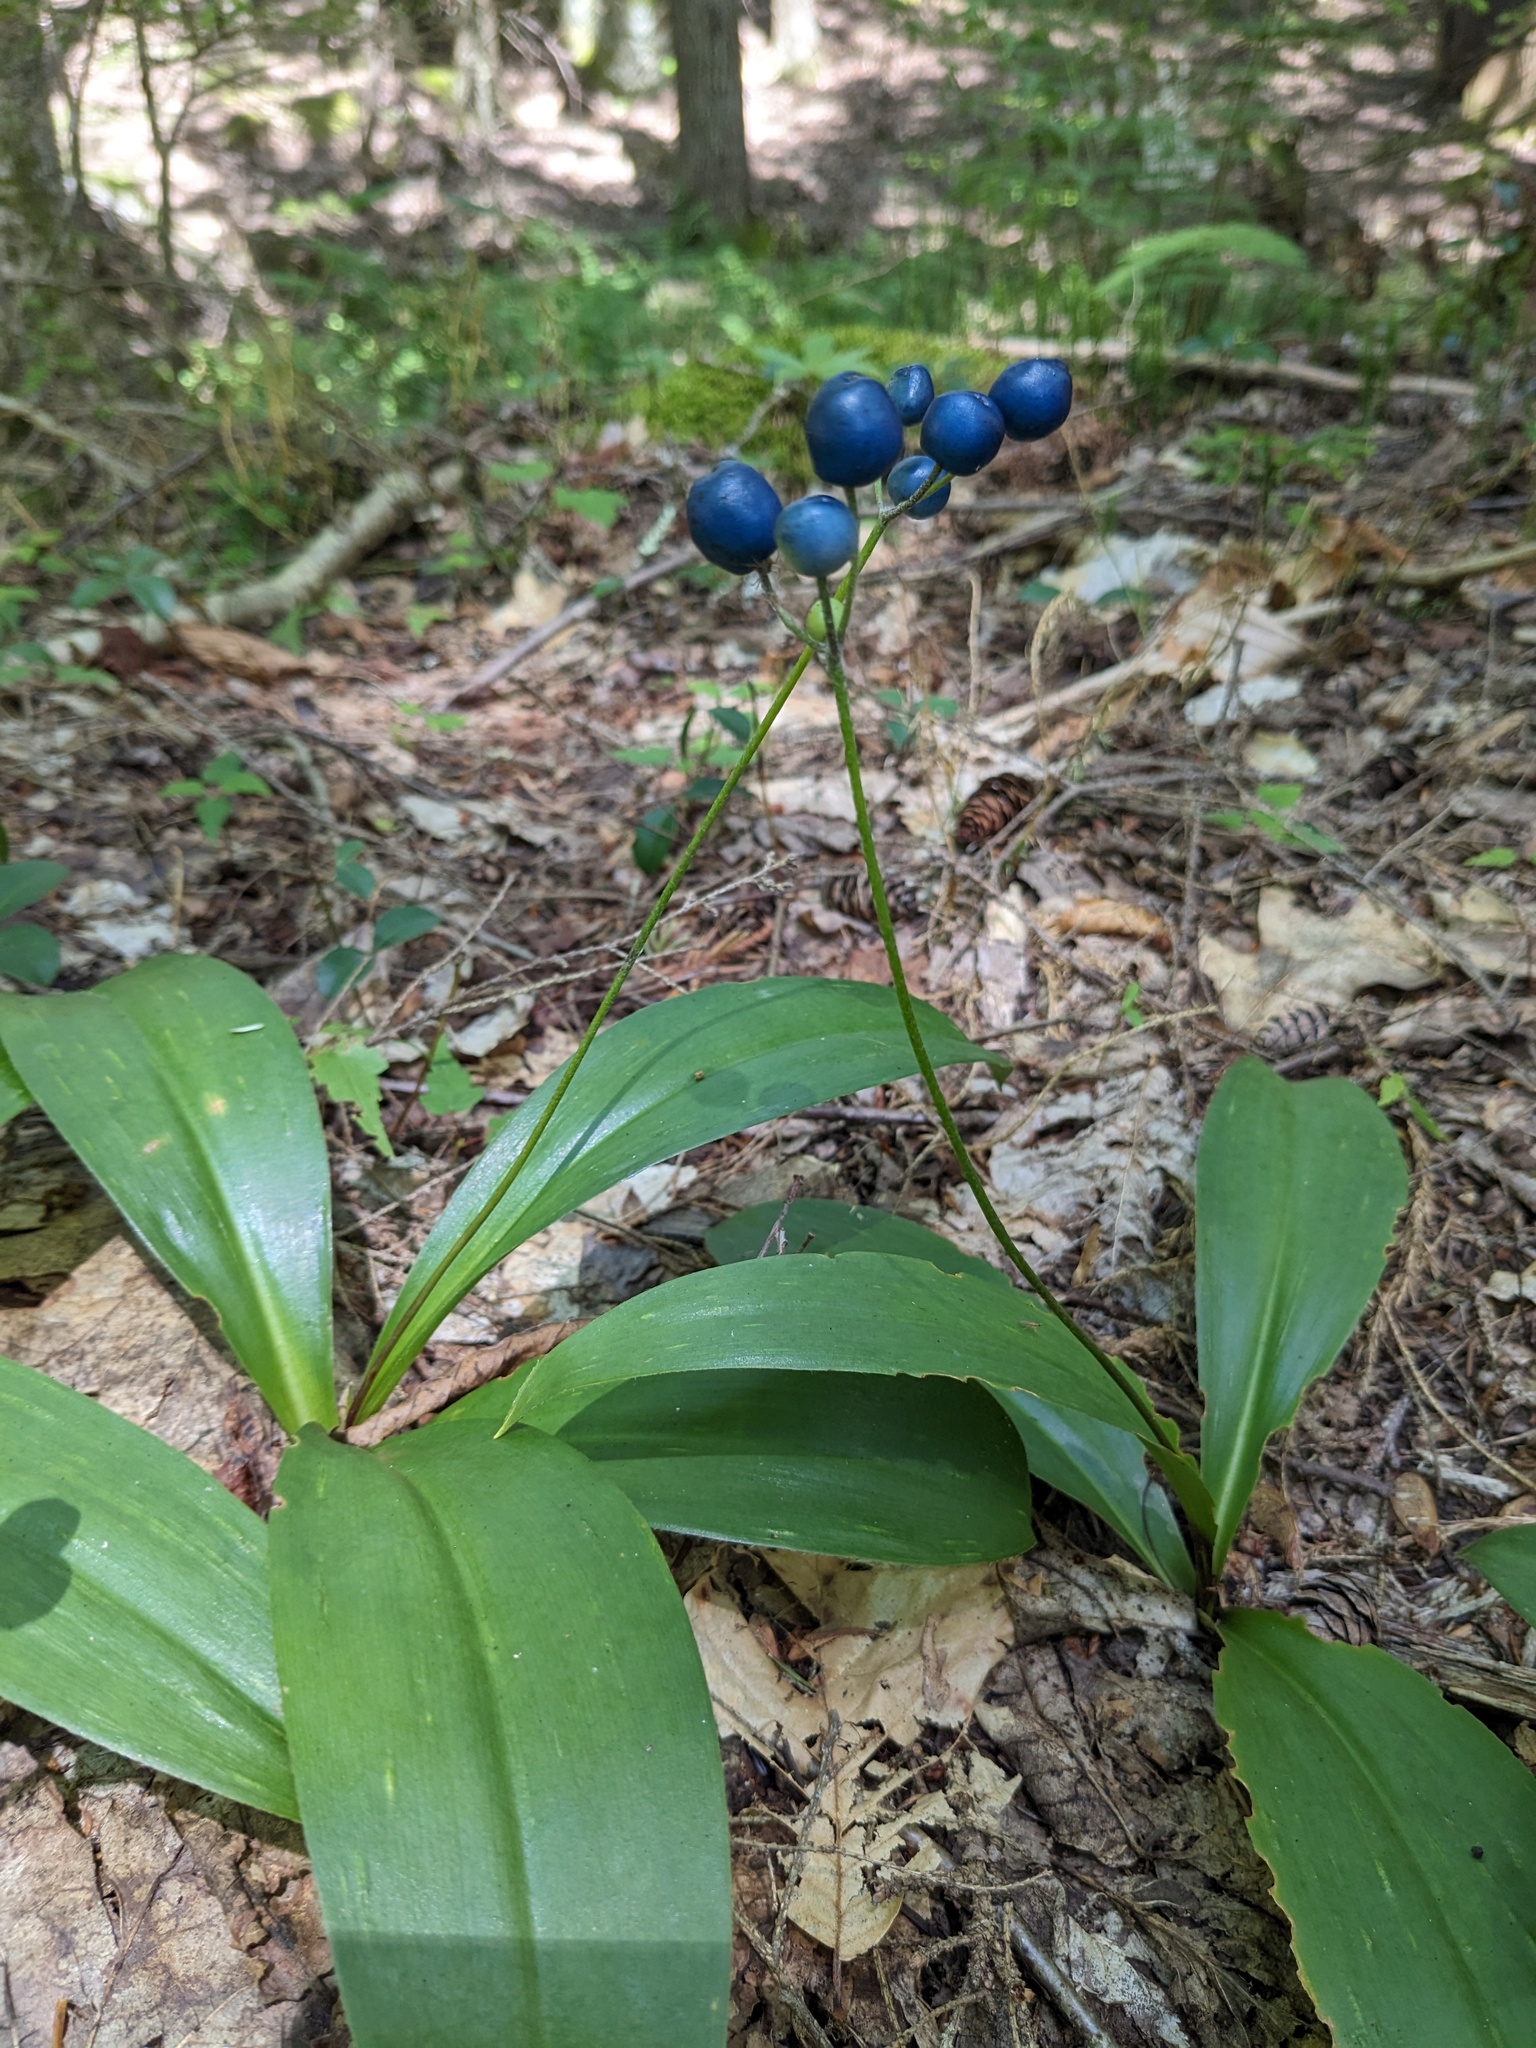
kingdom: Plantae
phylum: Tracheophyta
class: Liliopsida
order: Liliales
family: Liliaceae
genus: Clintonia
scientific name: Clintonia borealis
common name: Yellow clintonia
